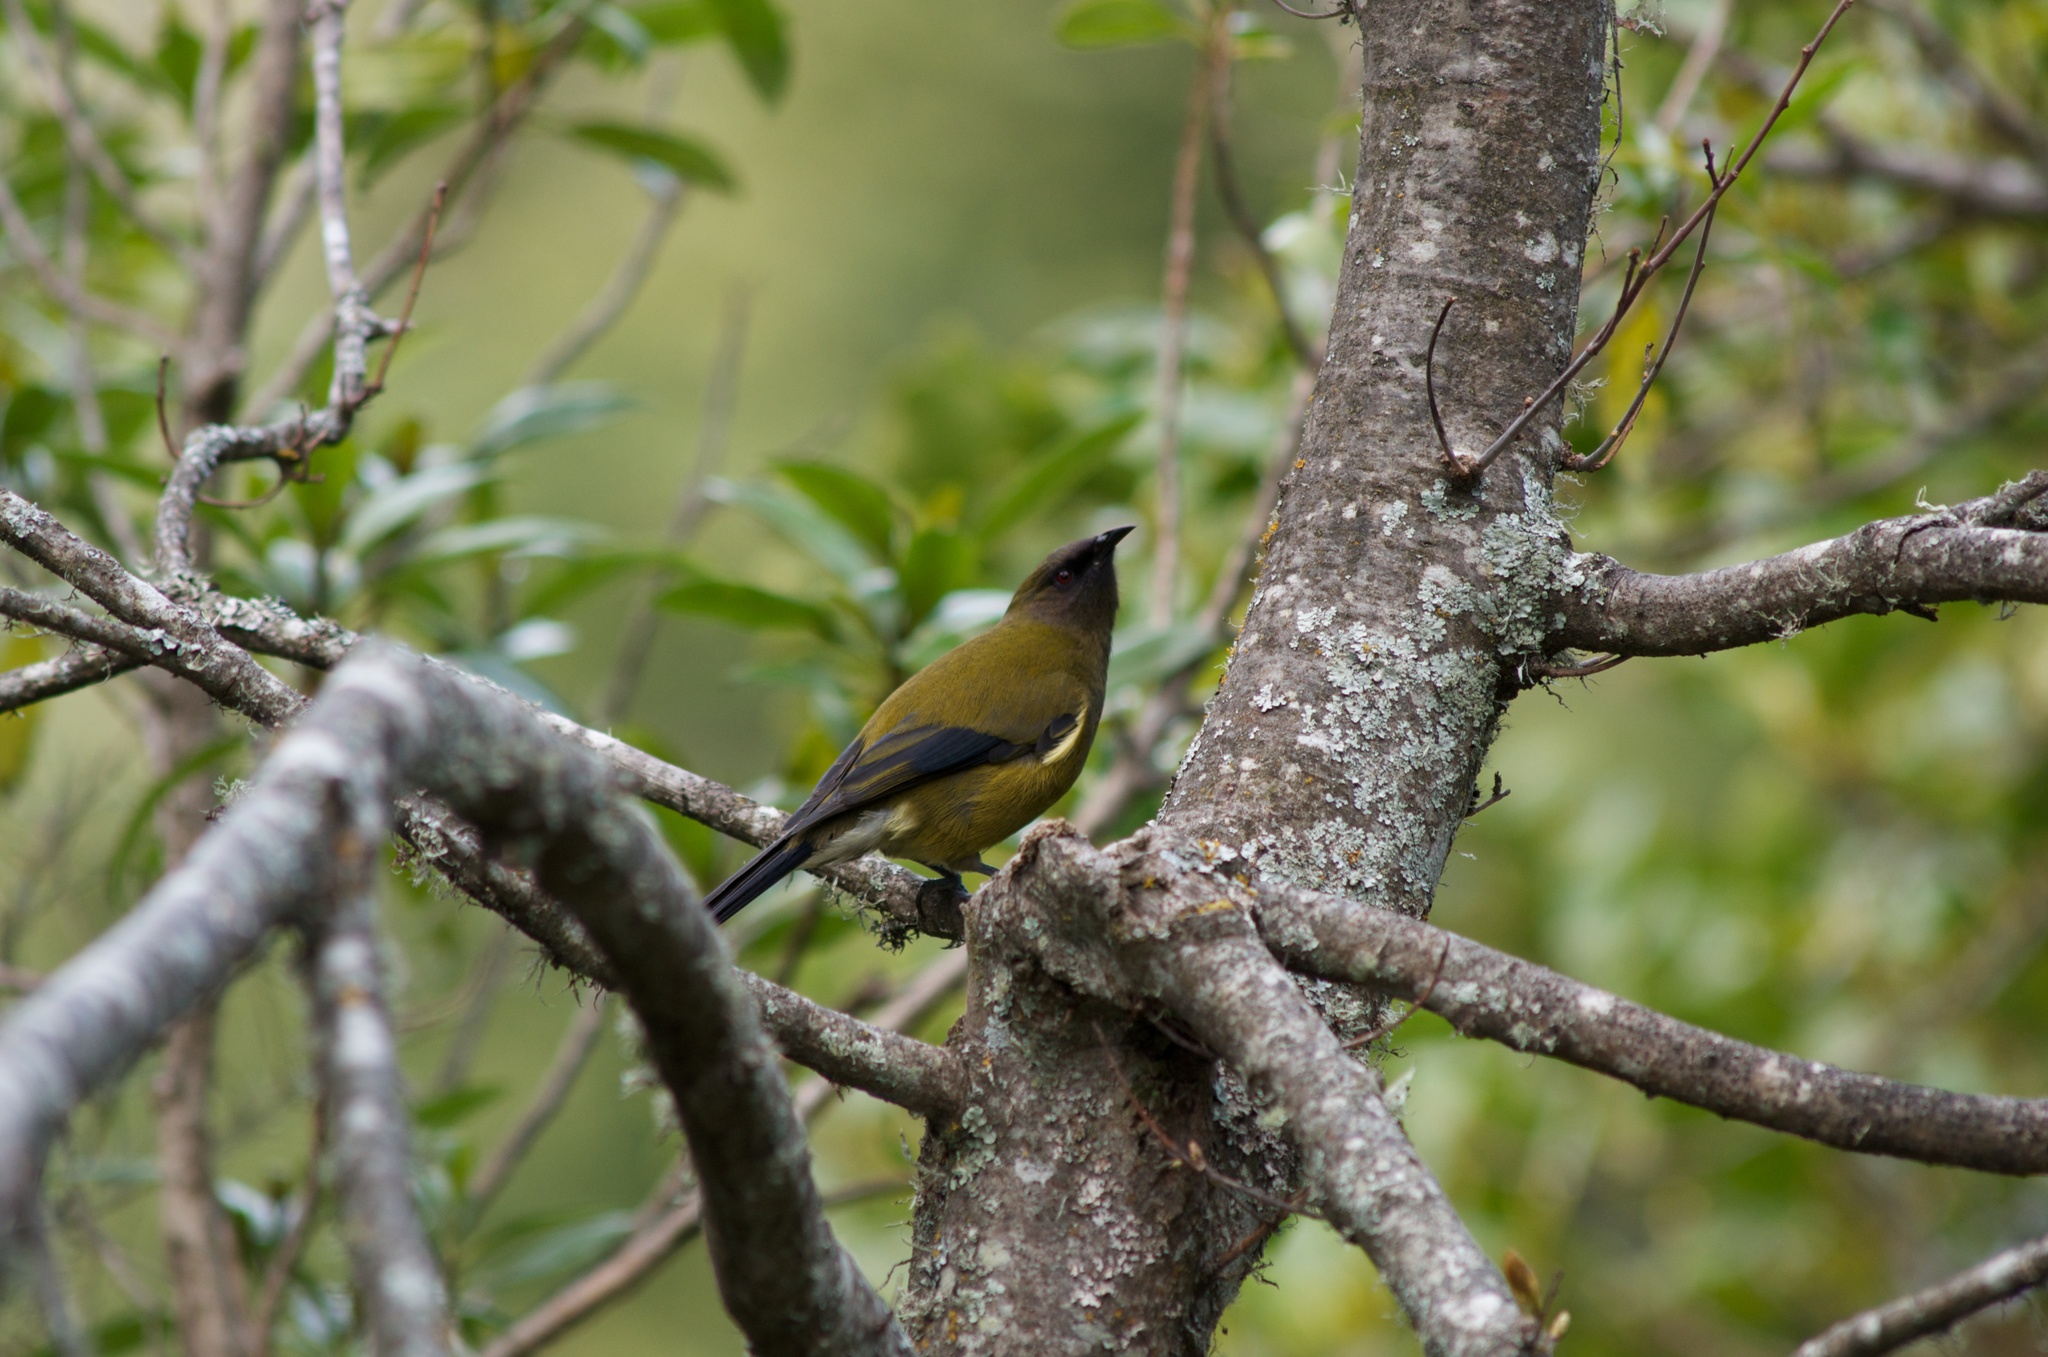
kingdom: Animalia
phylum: Chordata
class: Aves
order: Passeriformes
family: Meliphagidae
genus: Anthornis
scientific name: Anthornis melanura
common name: New zealand bellbird
